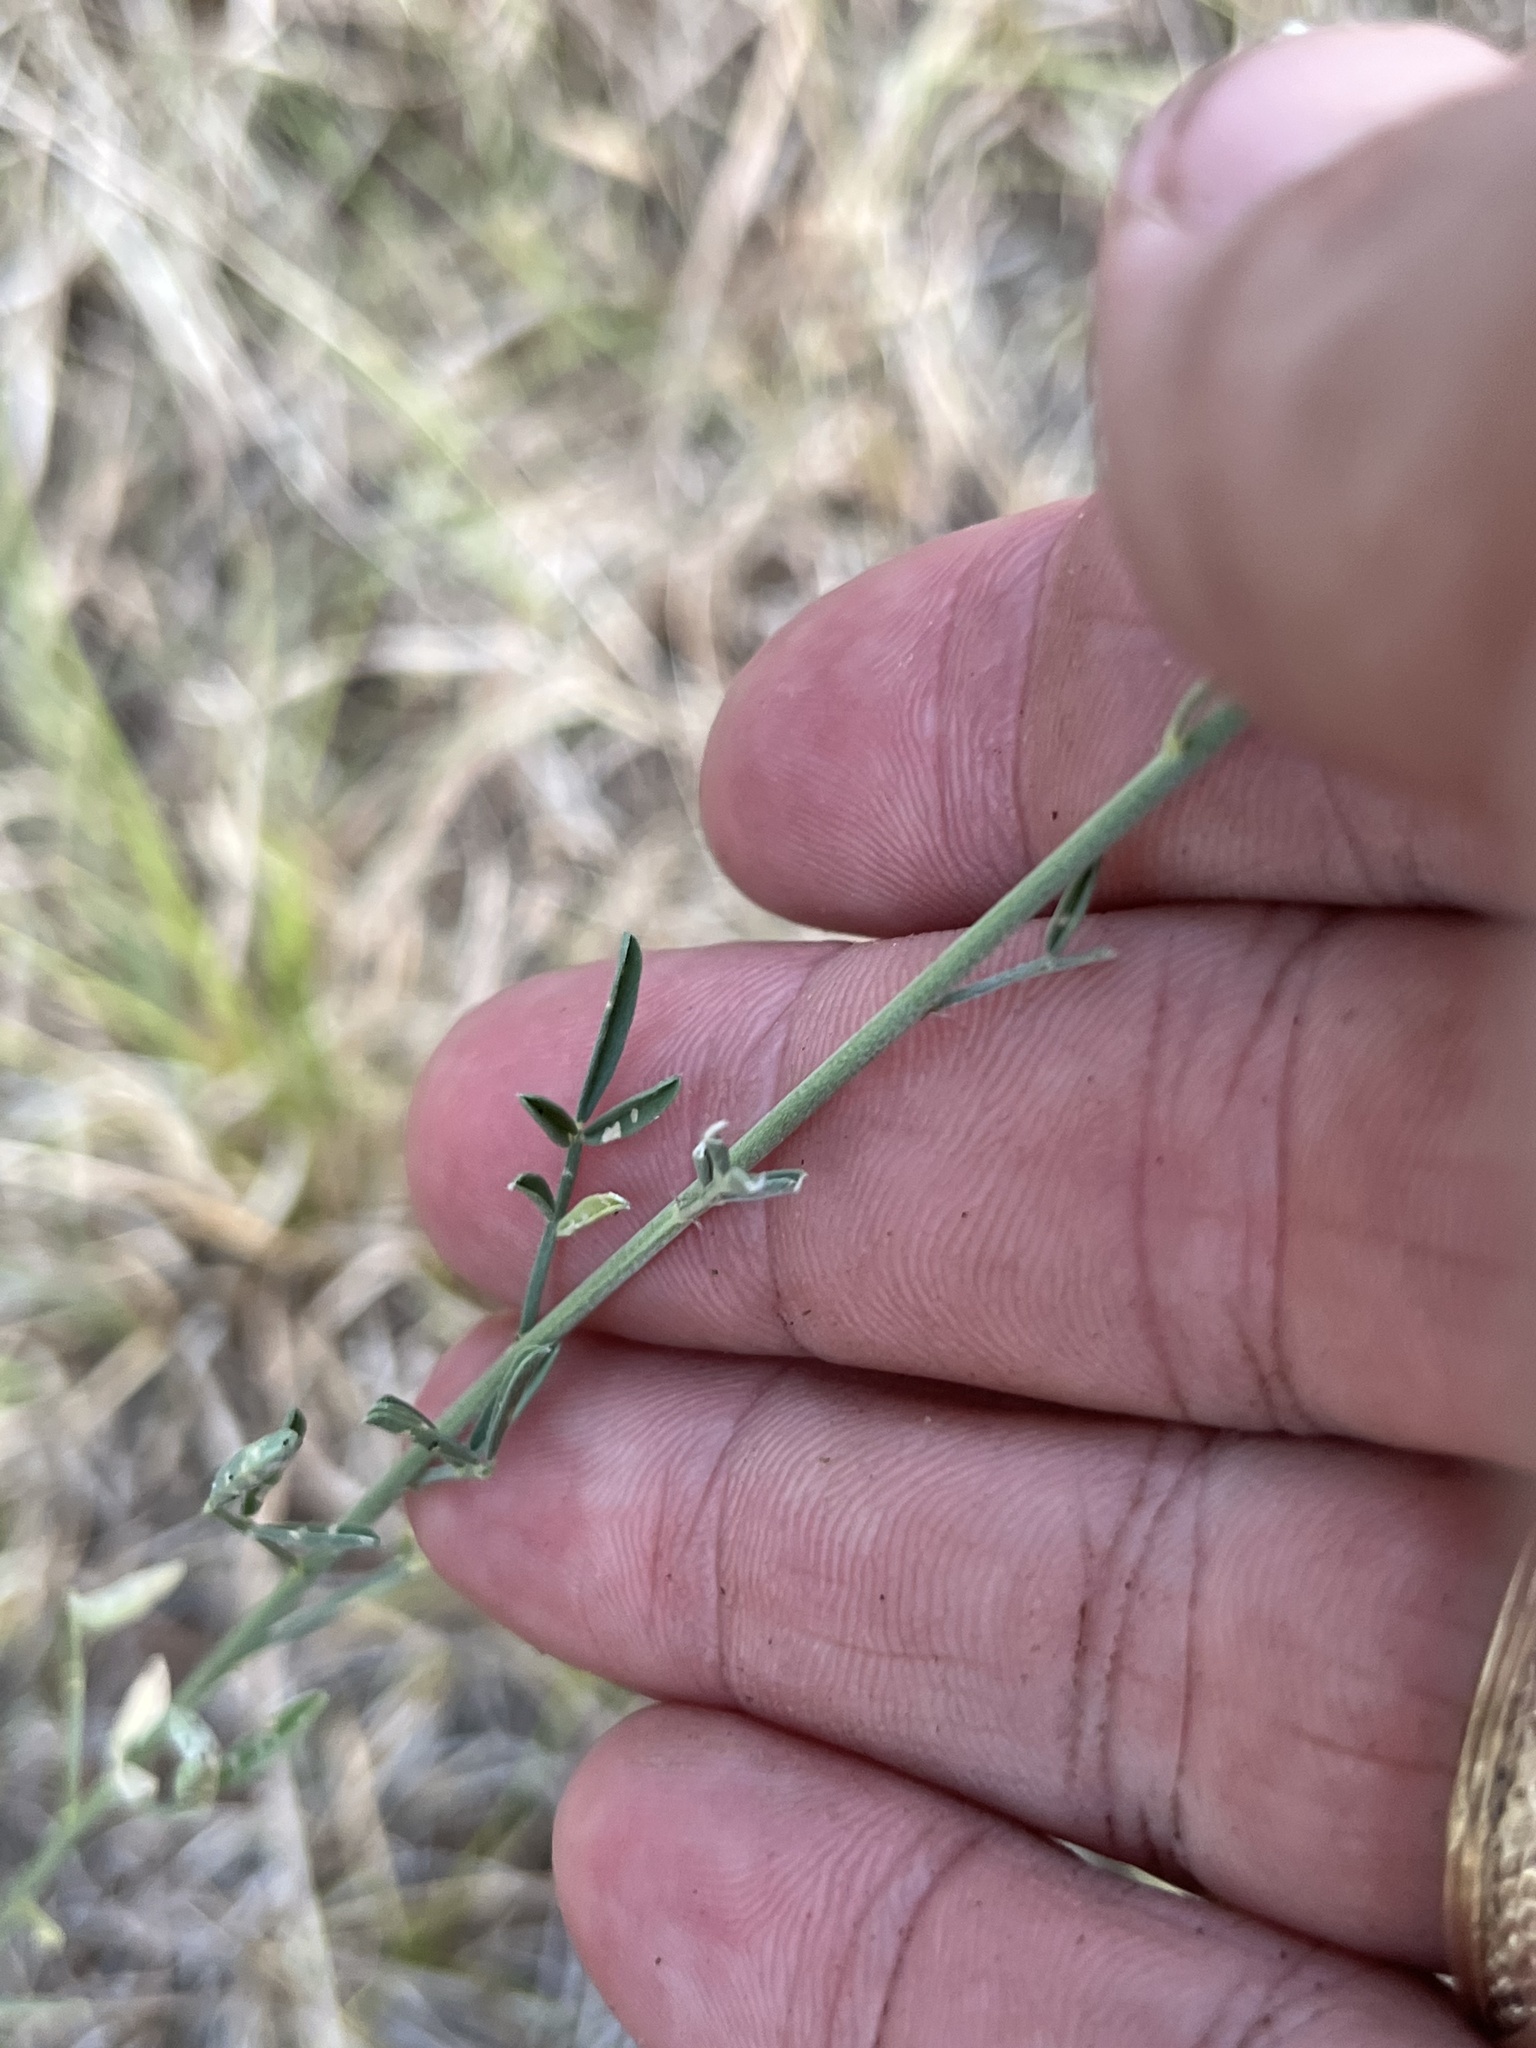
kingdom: Plantae
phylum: Tracheophyta
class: Magnoliopsida
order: Fabales
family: Fabaceae
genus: Dalea
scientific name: Dalea aurea
